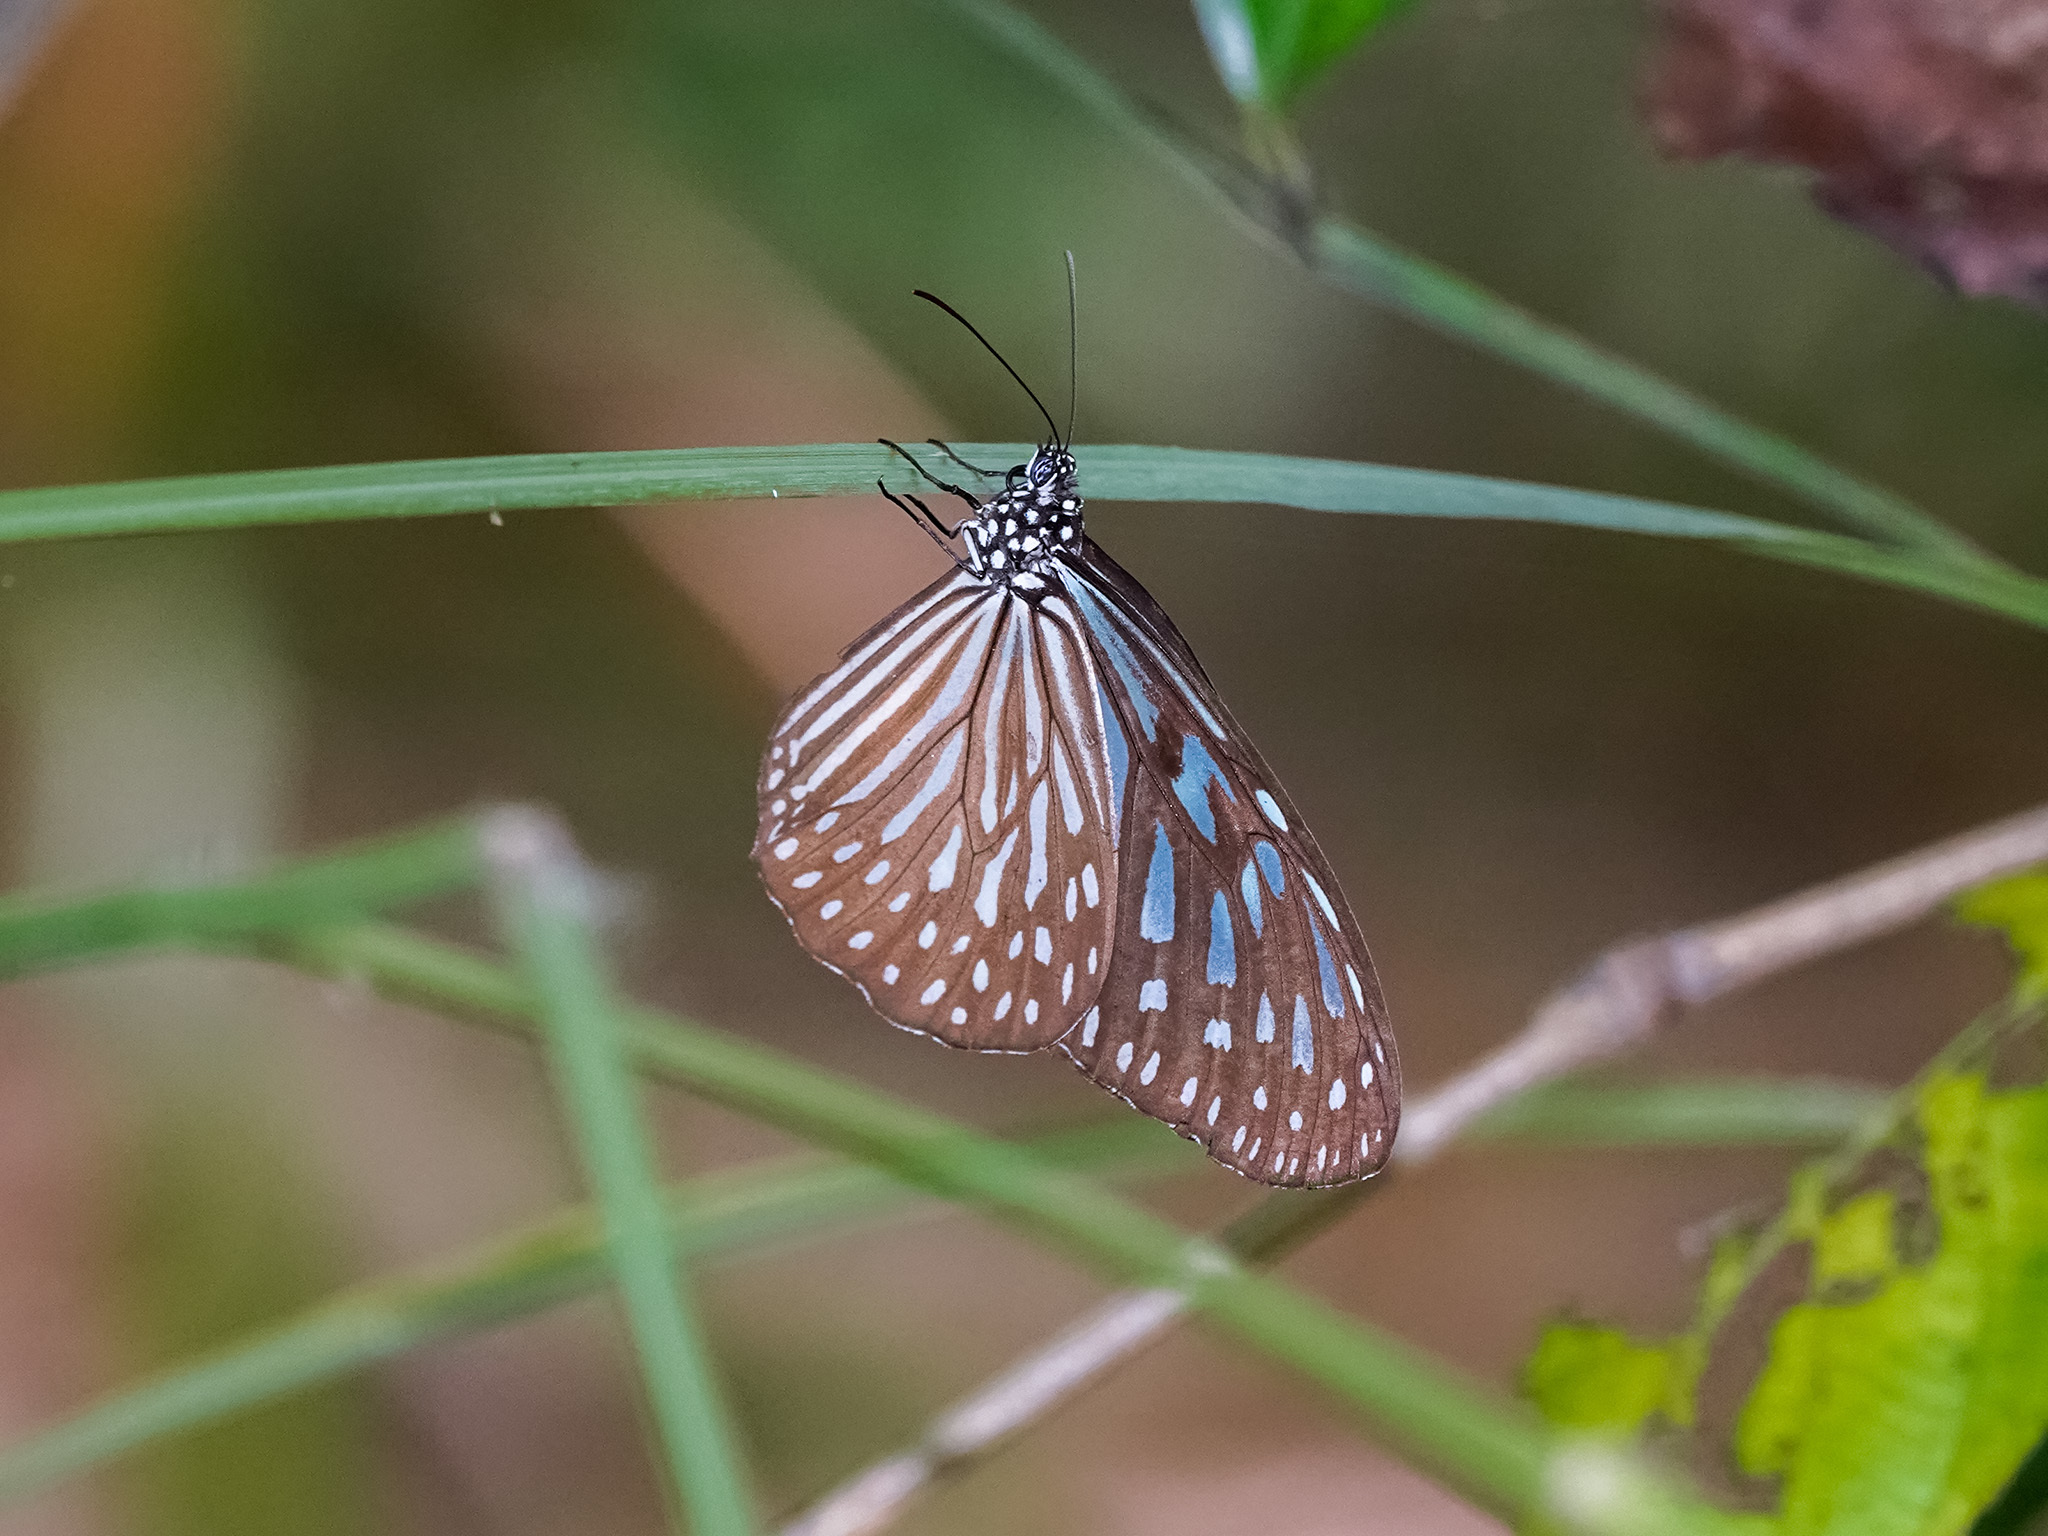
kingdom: Animalia
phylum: Arthropoda
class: Insecta
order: Lepidoptera
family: Nymphalidae
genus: Ideopsis
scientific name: Ideopsis vulgaris
